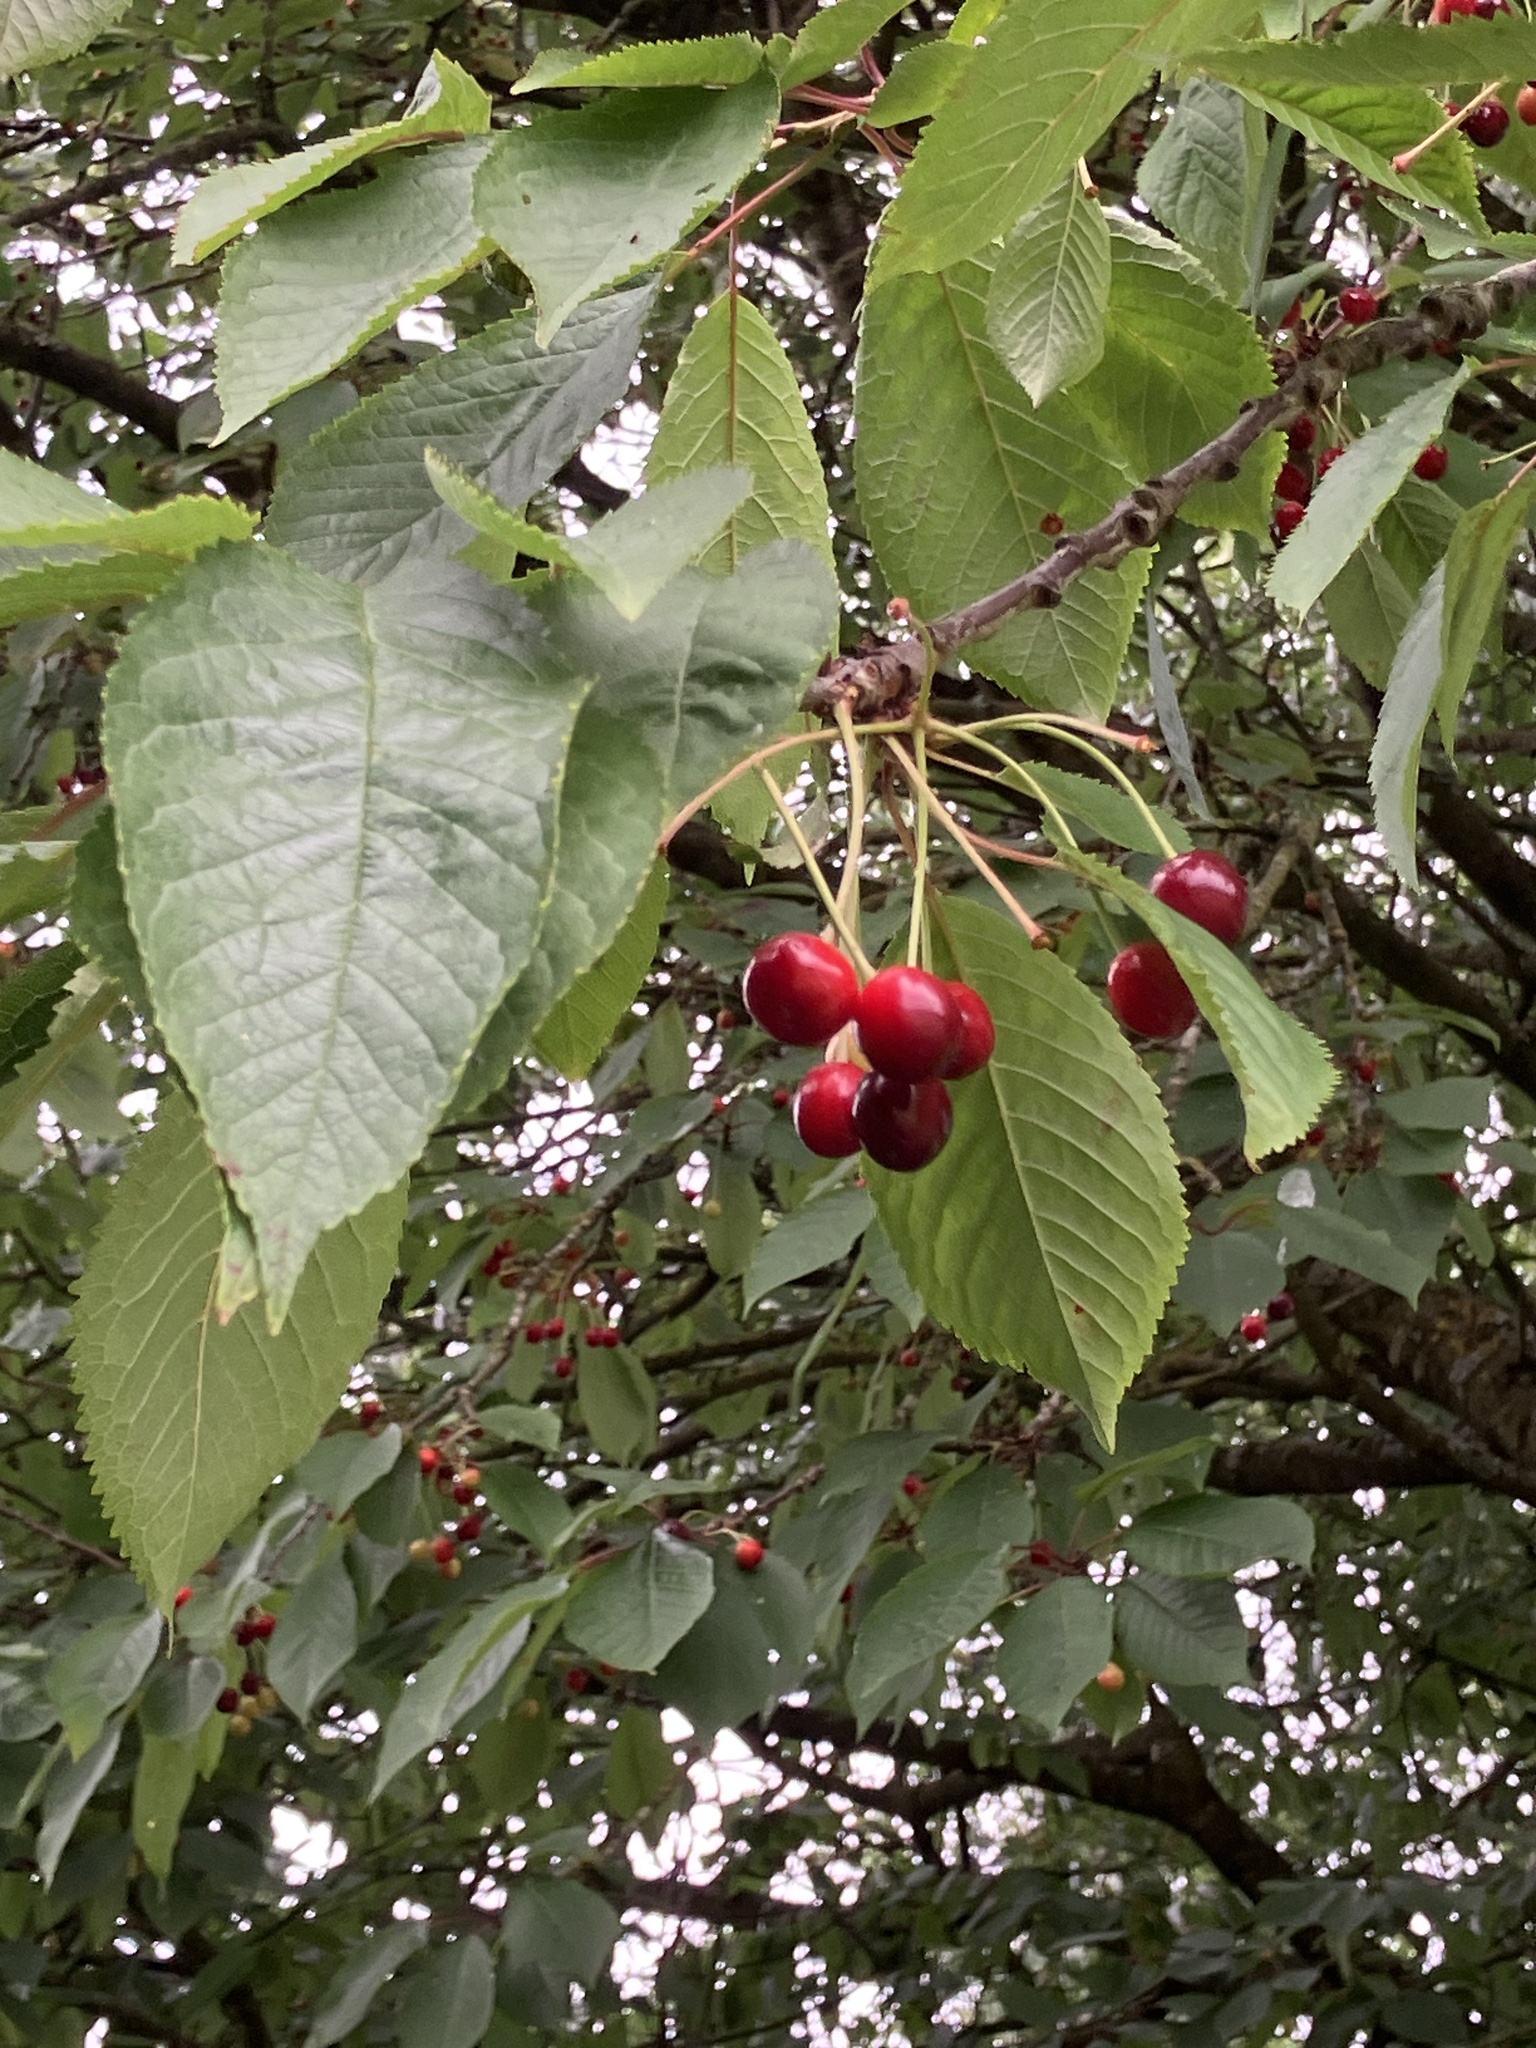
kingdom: Plantae
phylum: Tracheophyta
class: Magnoliopsida
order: Rosales
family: Rosaceae
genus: Prunus
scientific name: Prunus avium
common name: Sweet cherry
